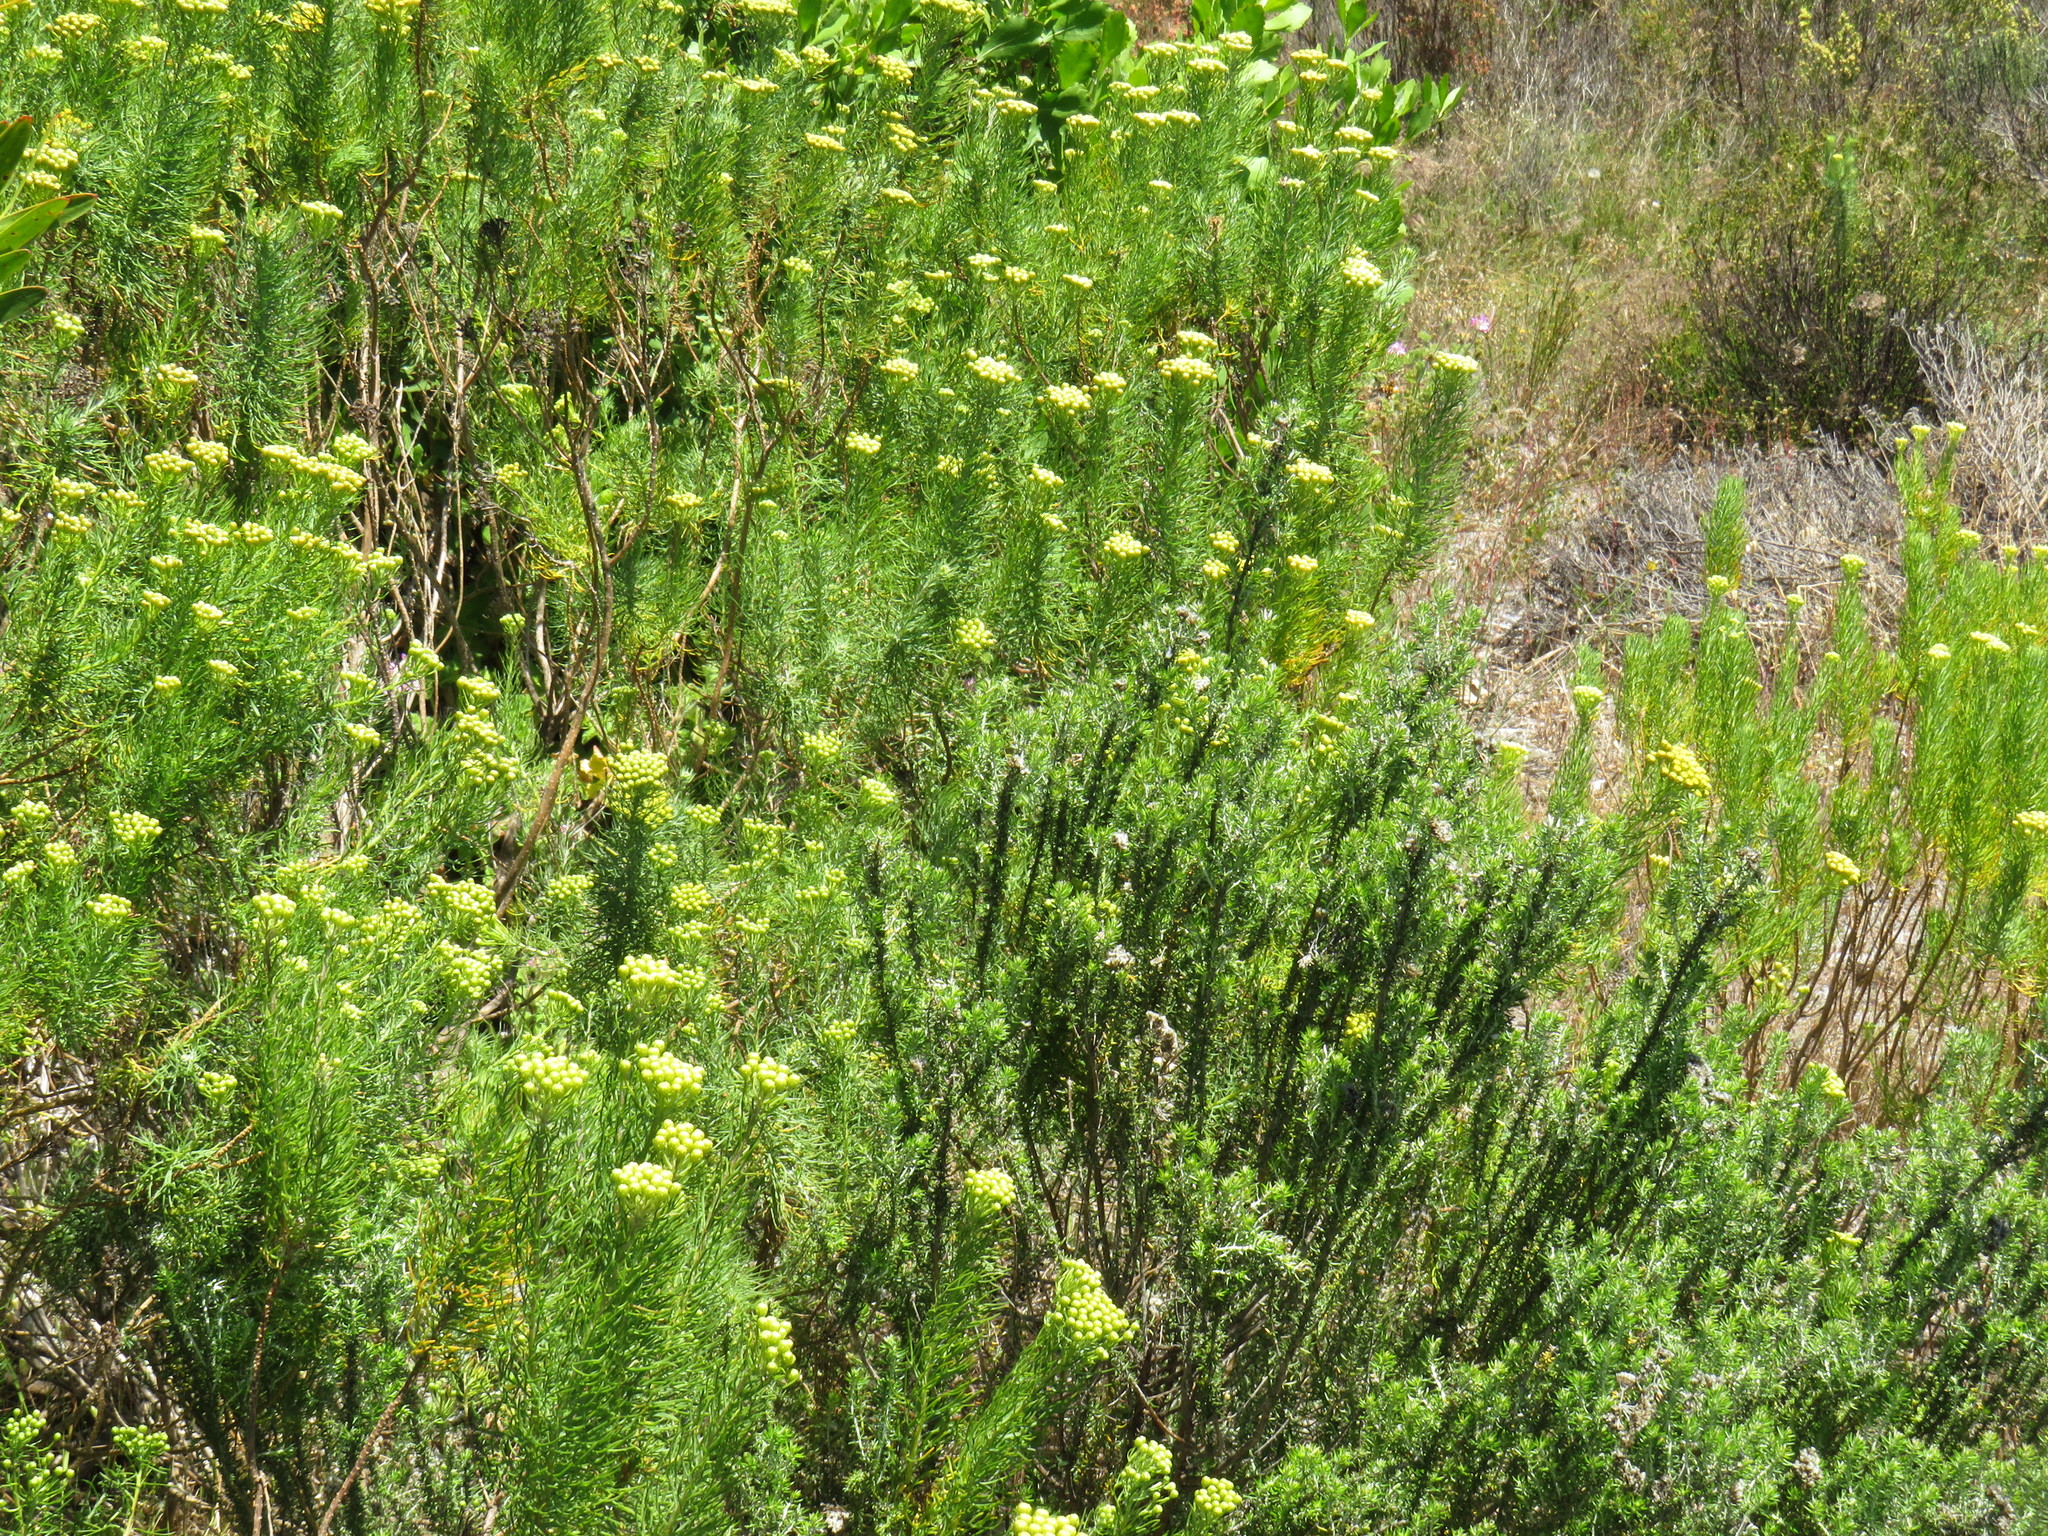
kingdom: Plantae
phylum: Tracheophyta
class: Magnoliopsida
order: Asterales
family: Asteraceae
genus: Athanasia
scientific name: Athanasia crithmifolia
